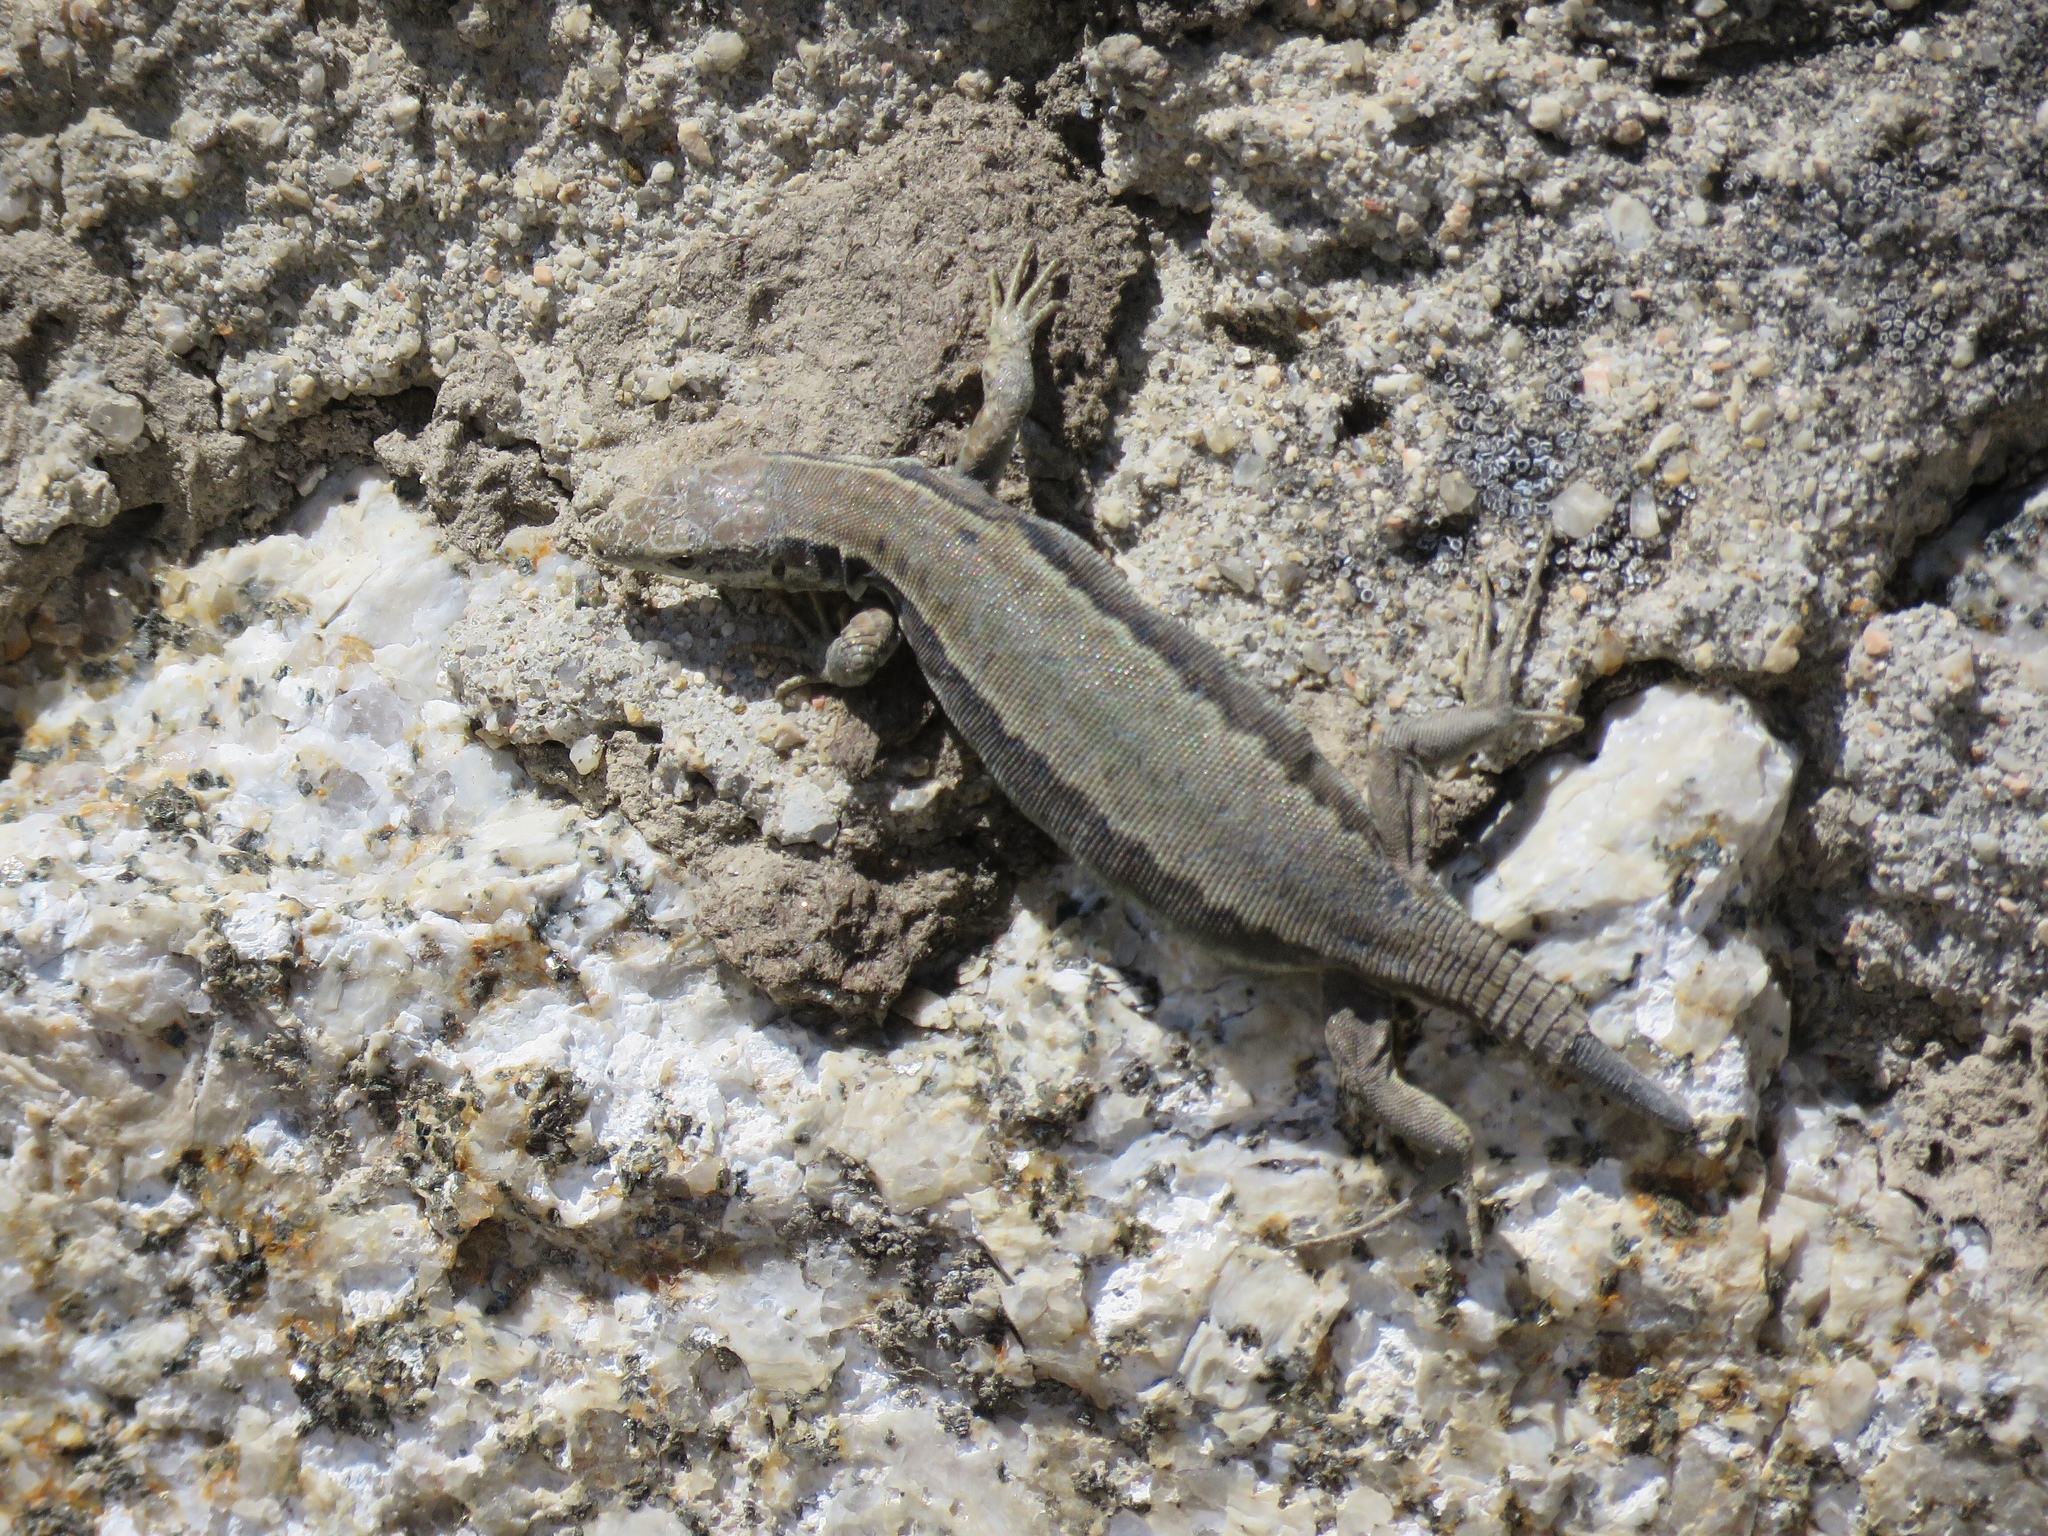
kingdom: Animalia
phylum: Chordata
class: Squamata
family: Lacertidae
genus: Podarcis
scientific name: Podarcis guadarramae
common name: Guadarrama wall lizard
